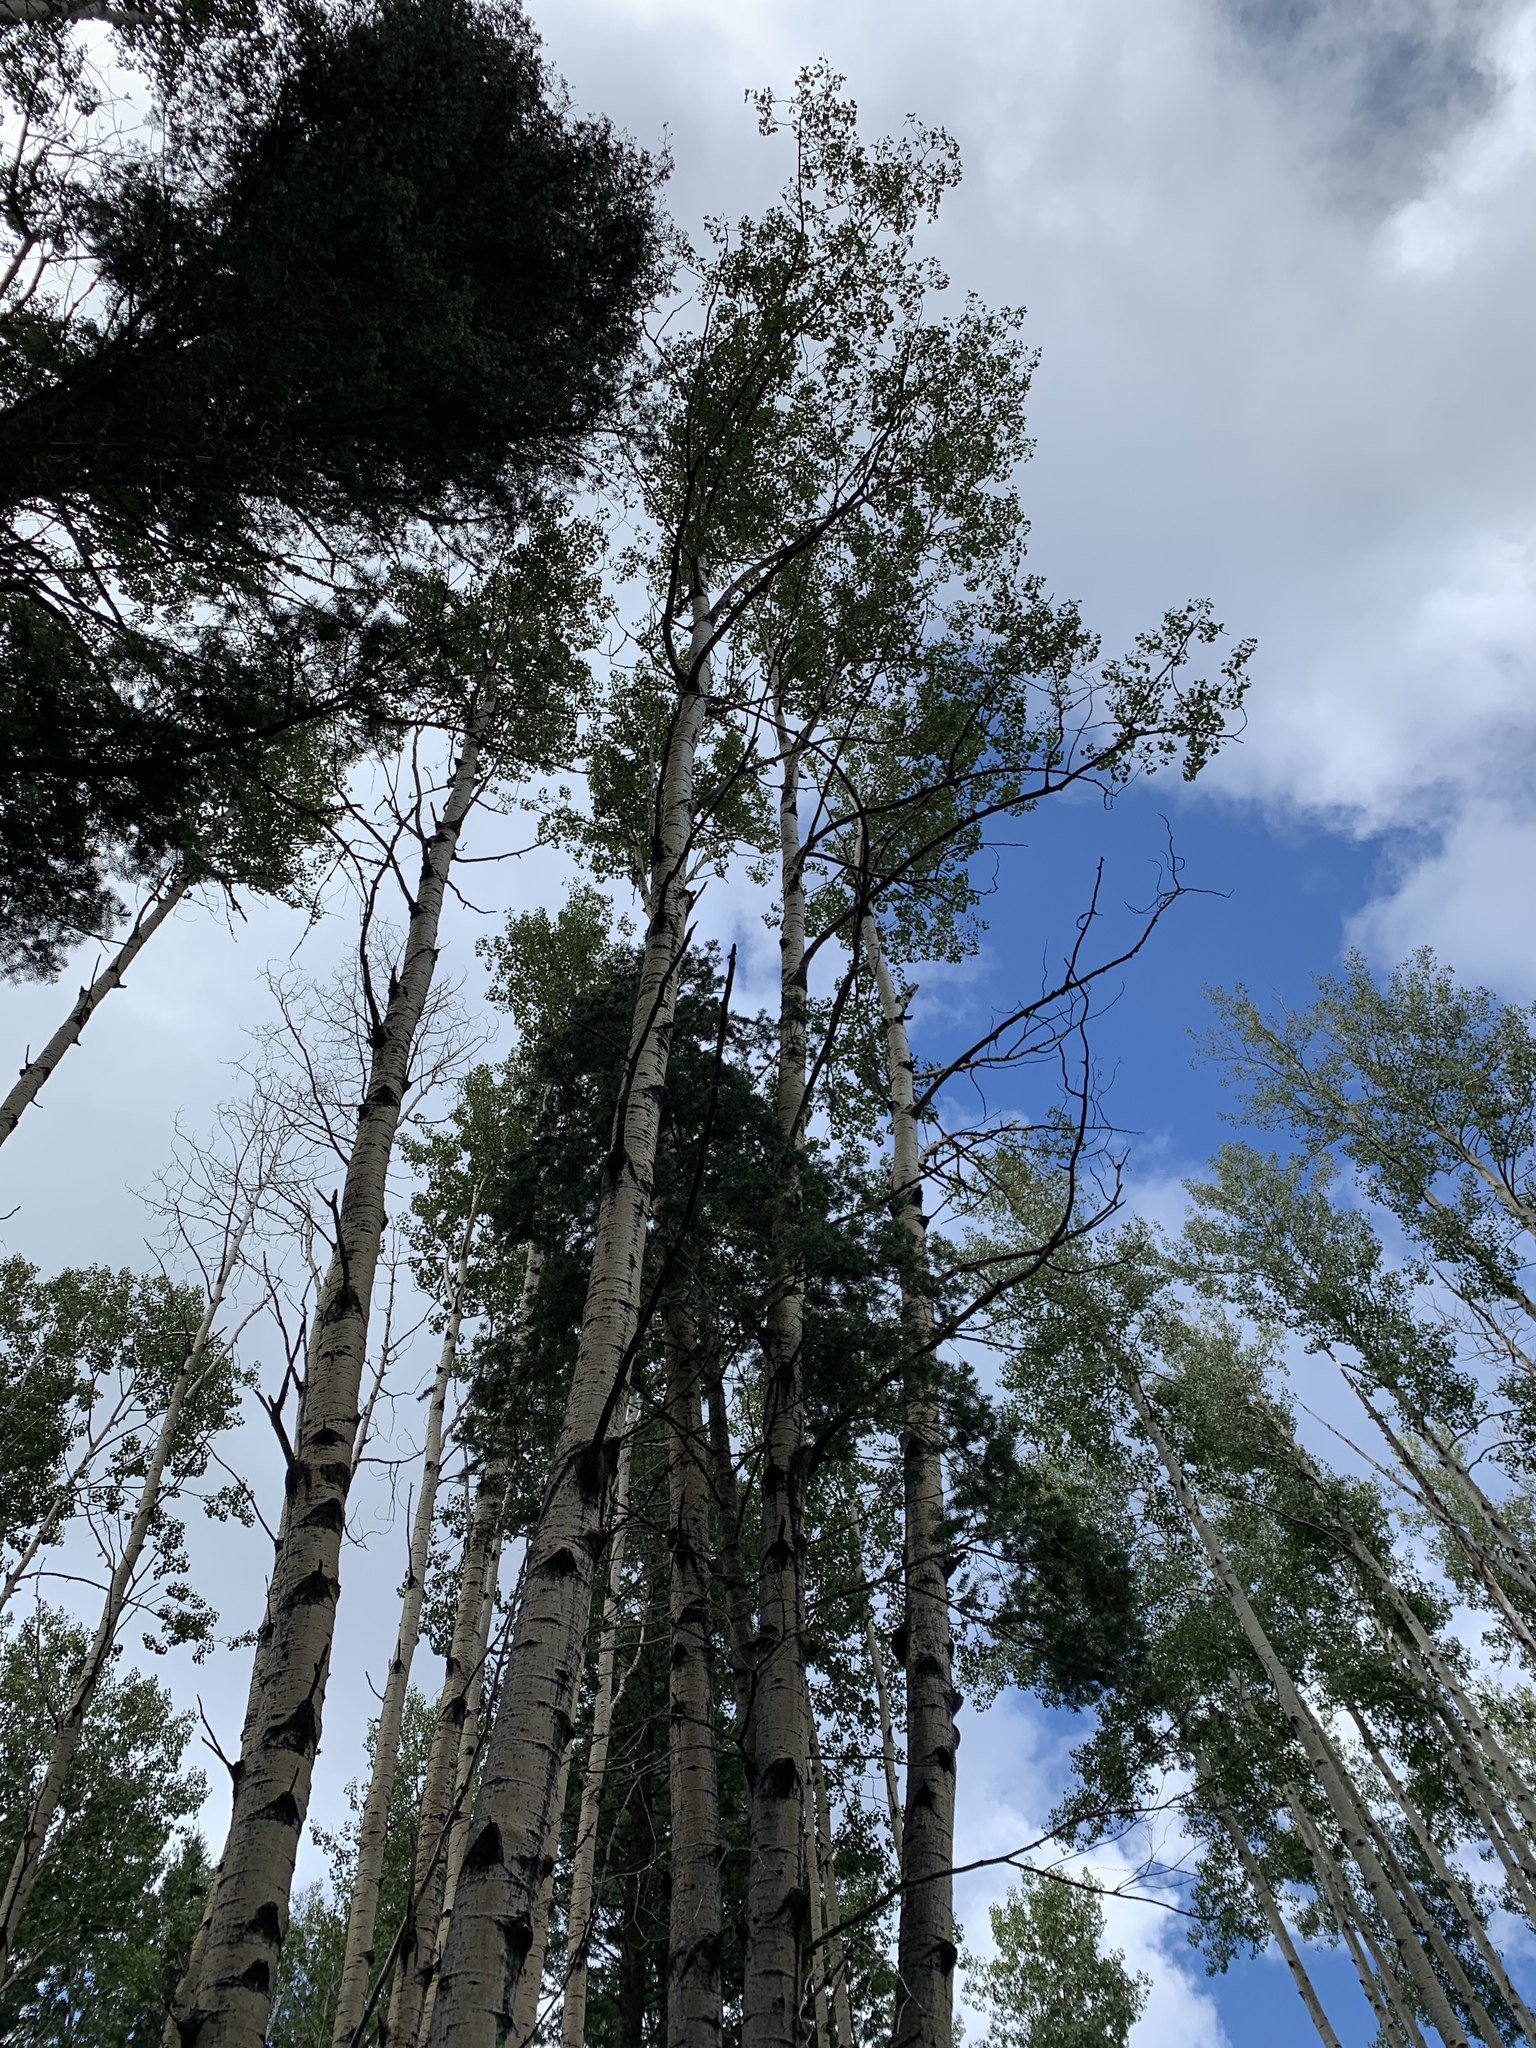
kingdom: Plantae
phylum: Tracheophyta
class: Magnoliopsida
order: Malpighiales
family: Salicaceae
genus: Populus
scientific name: Populus tremuloides
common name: Quaking aspen
